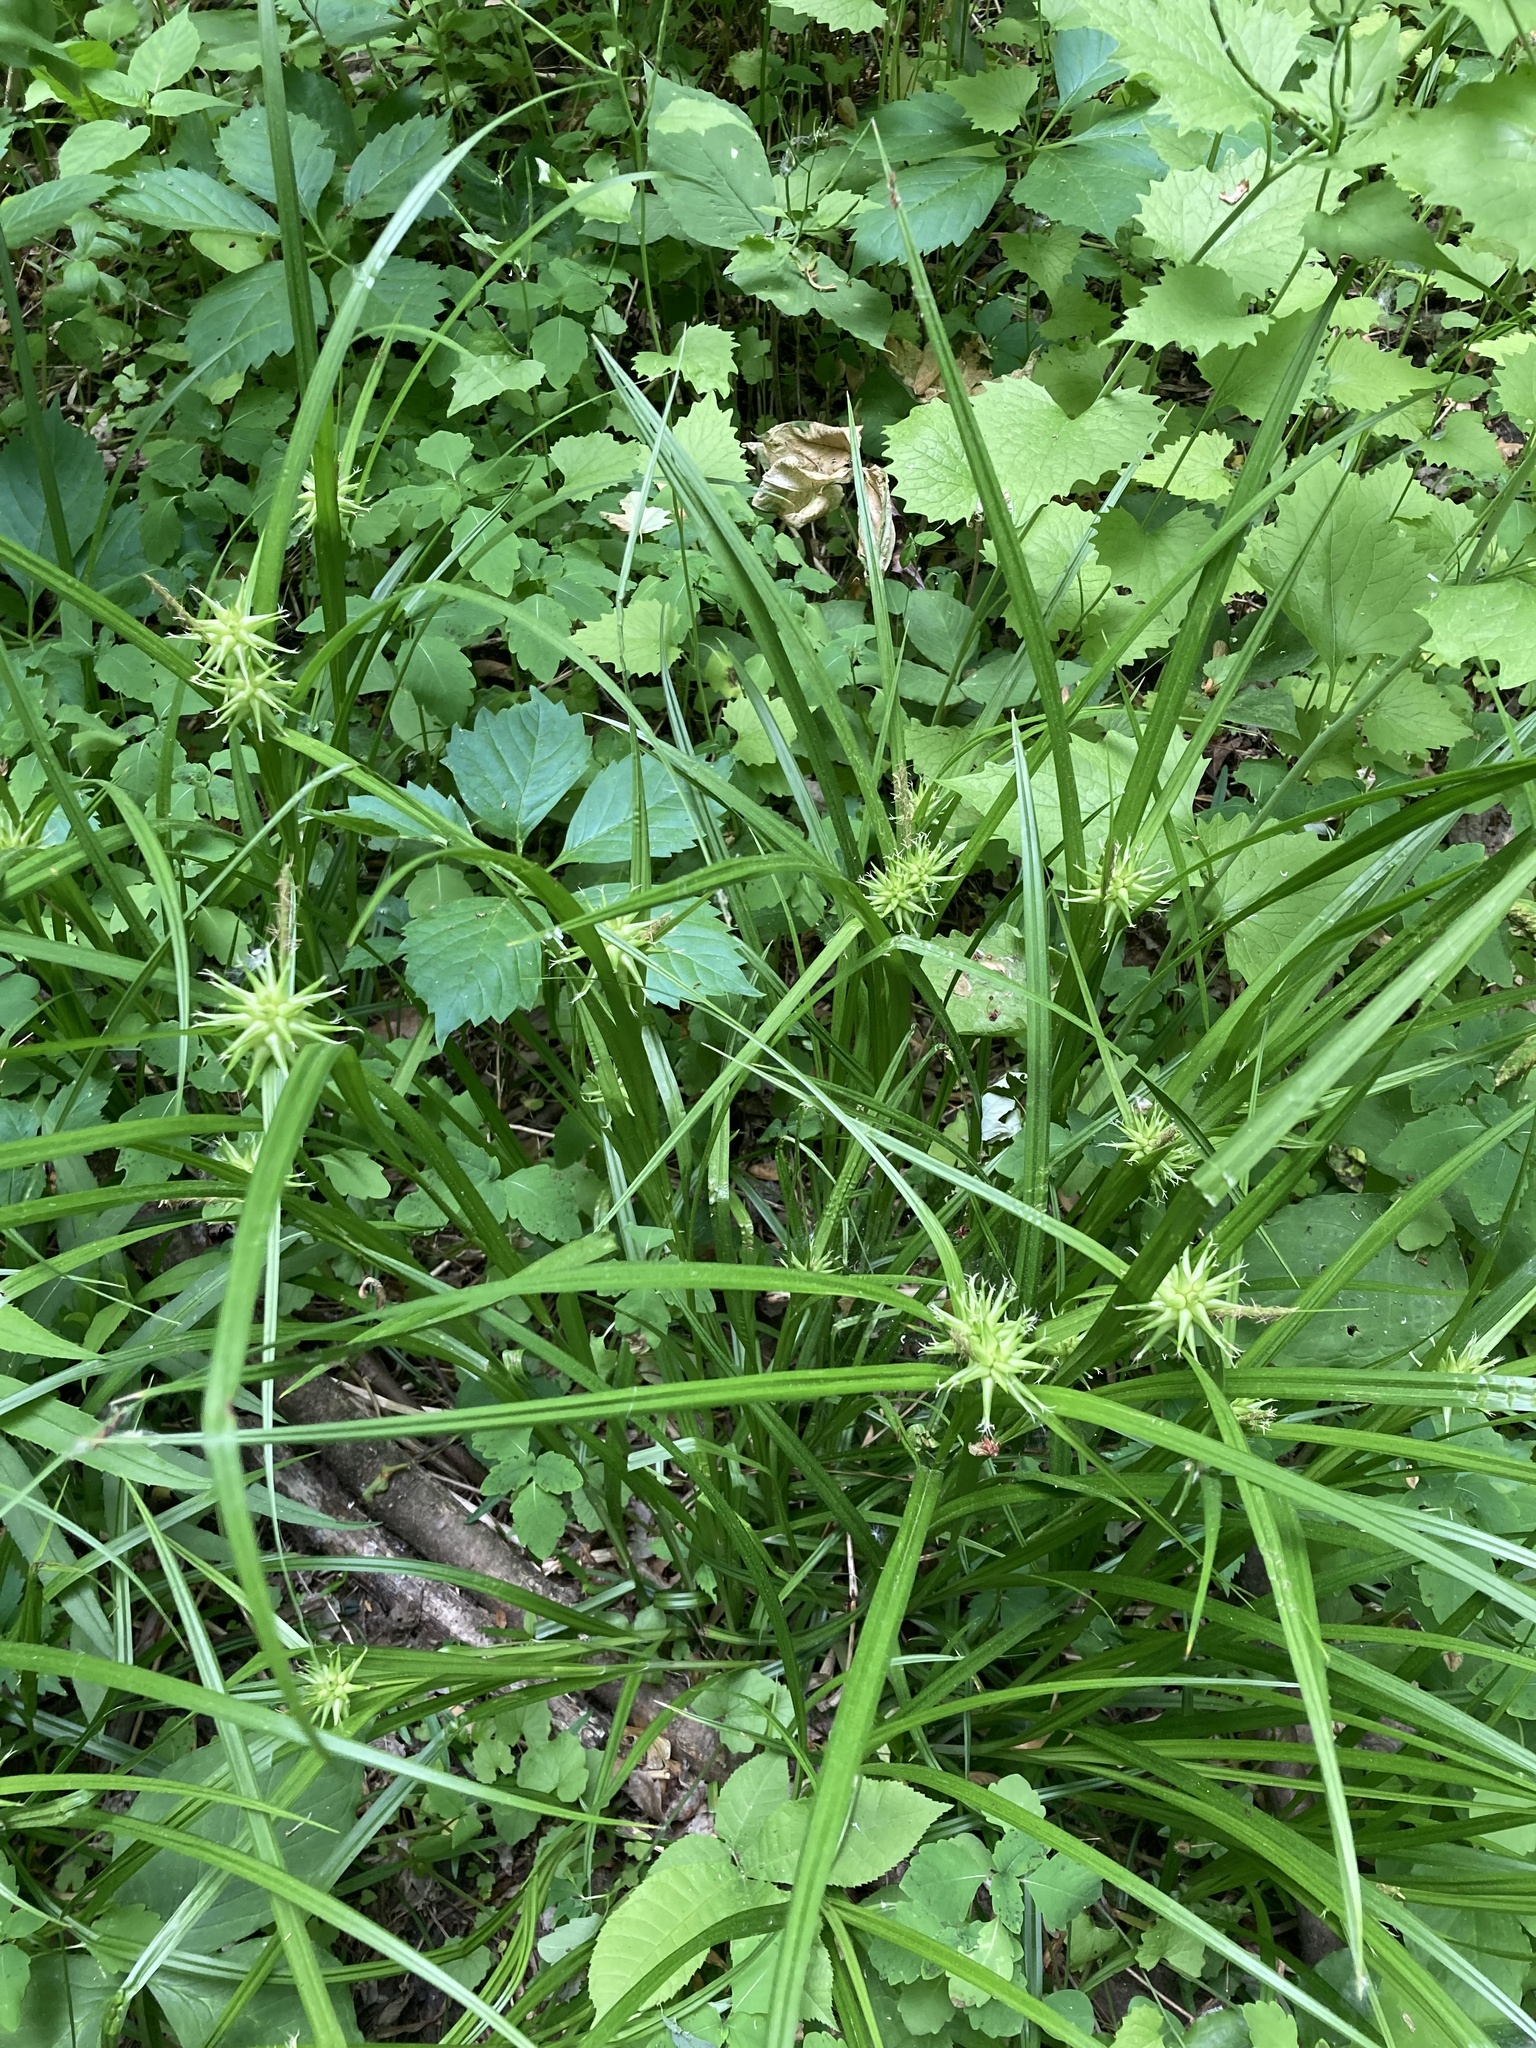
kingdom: Plantae
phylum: Tracheophyta
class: Liliopsida
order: Poales
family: Cyperaceae
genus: Carex
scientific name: Carex grayi
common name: Asa gray's sedge
